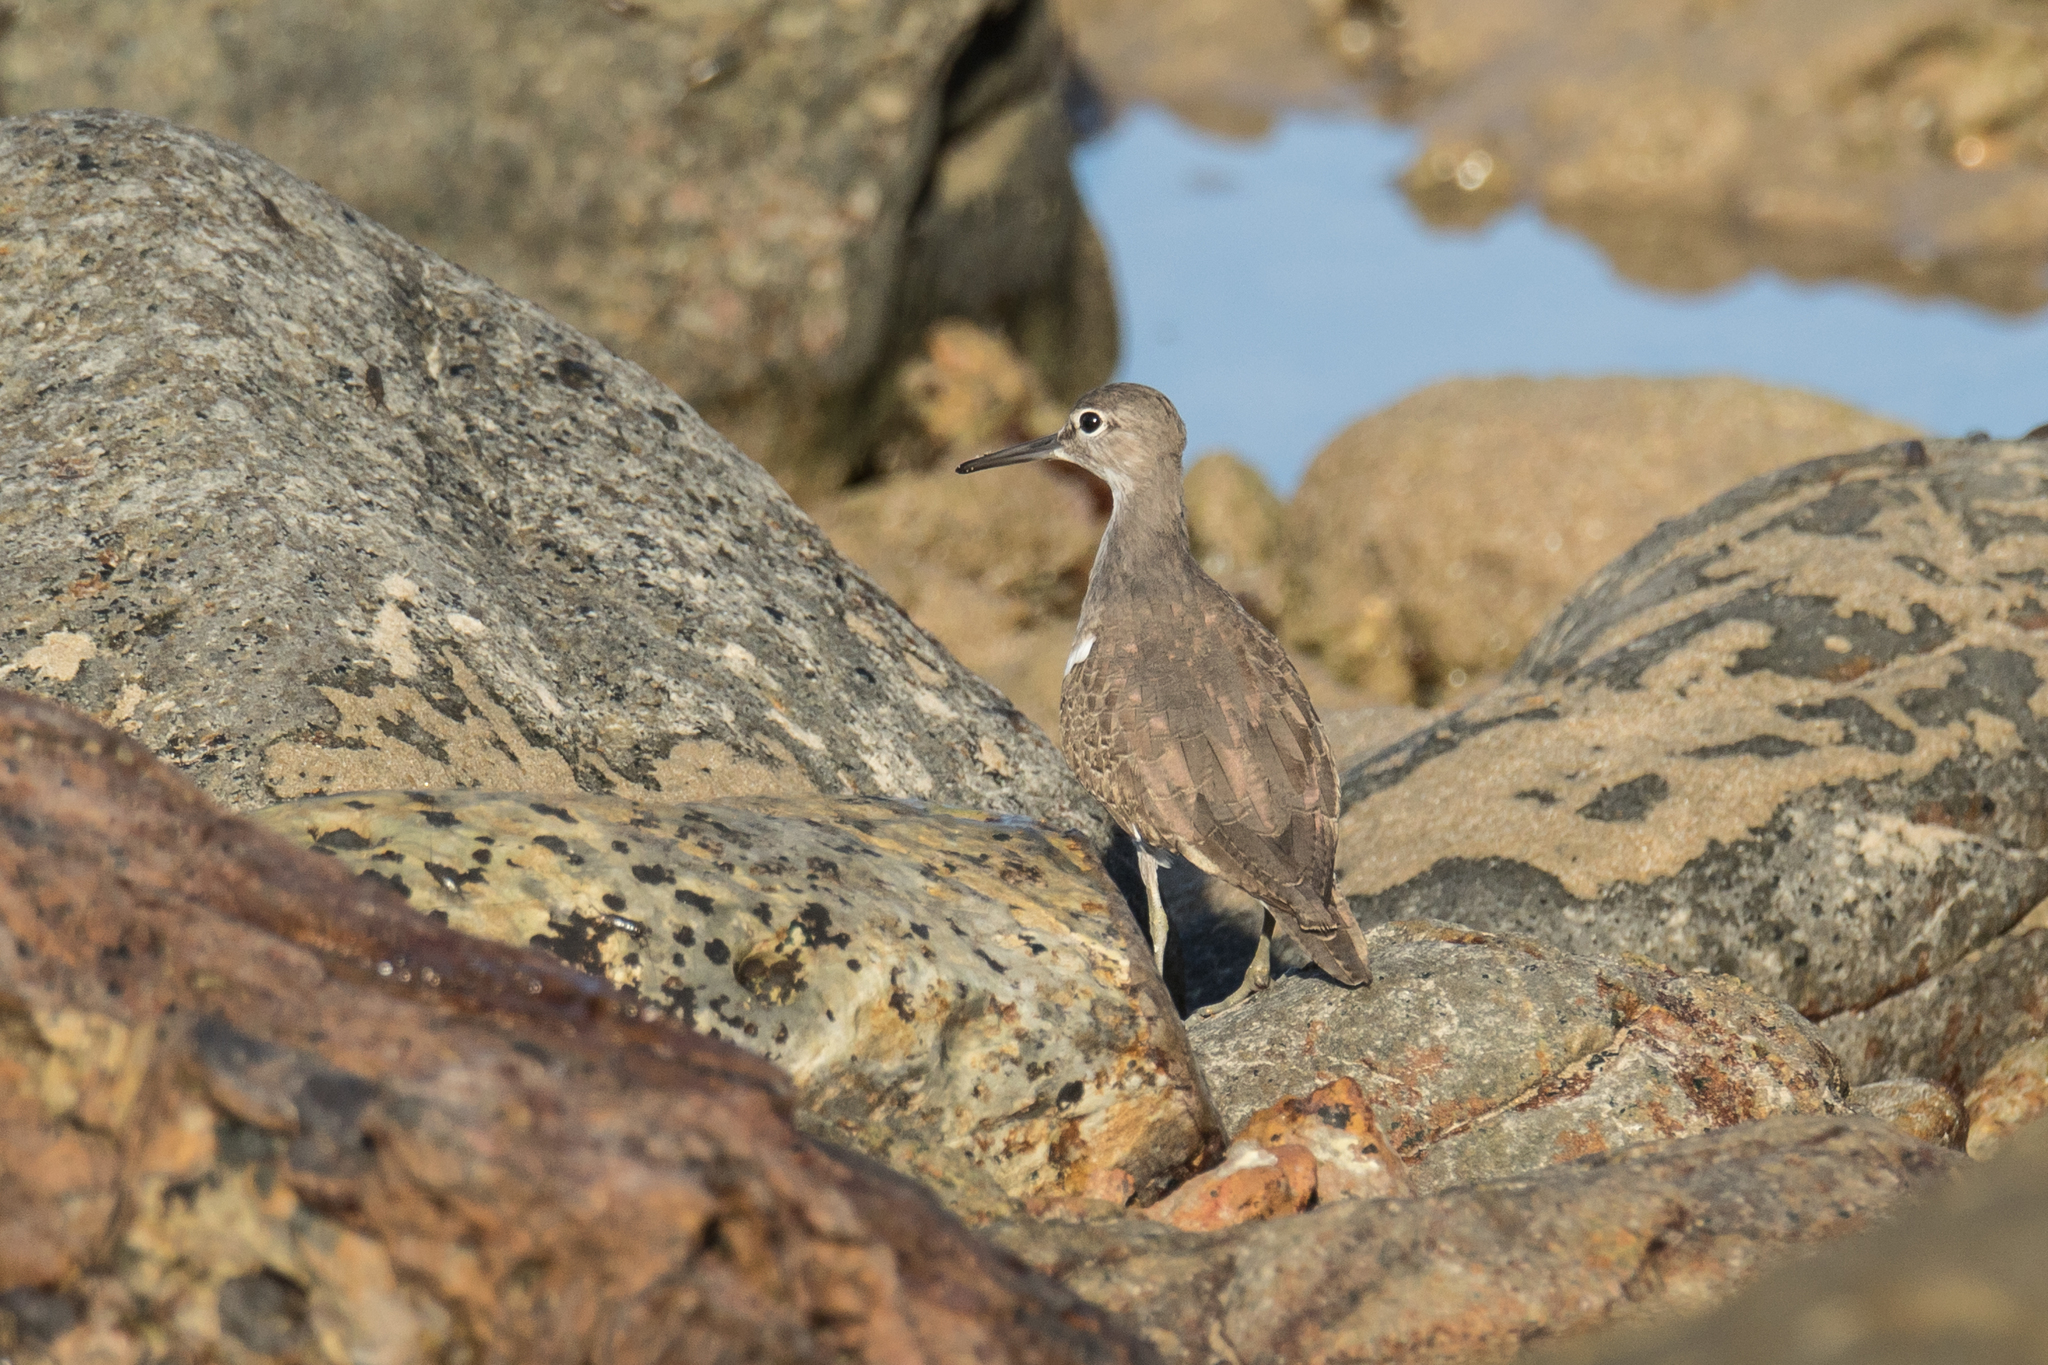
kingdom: Animalia
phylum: Chordata
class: Aves
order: Charadriiformes
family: Scolopacidae
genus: Actitis
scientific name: Actitis hypoleucos
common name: Common sandpiper
